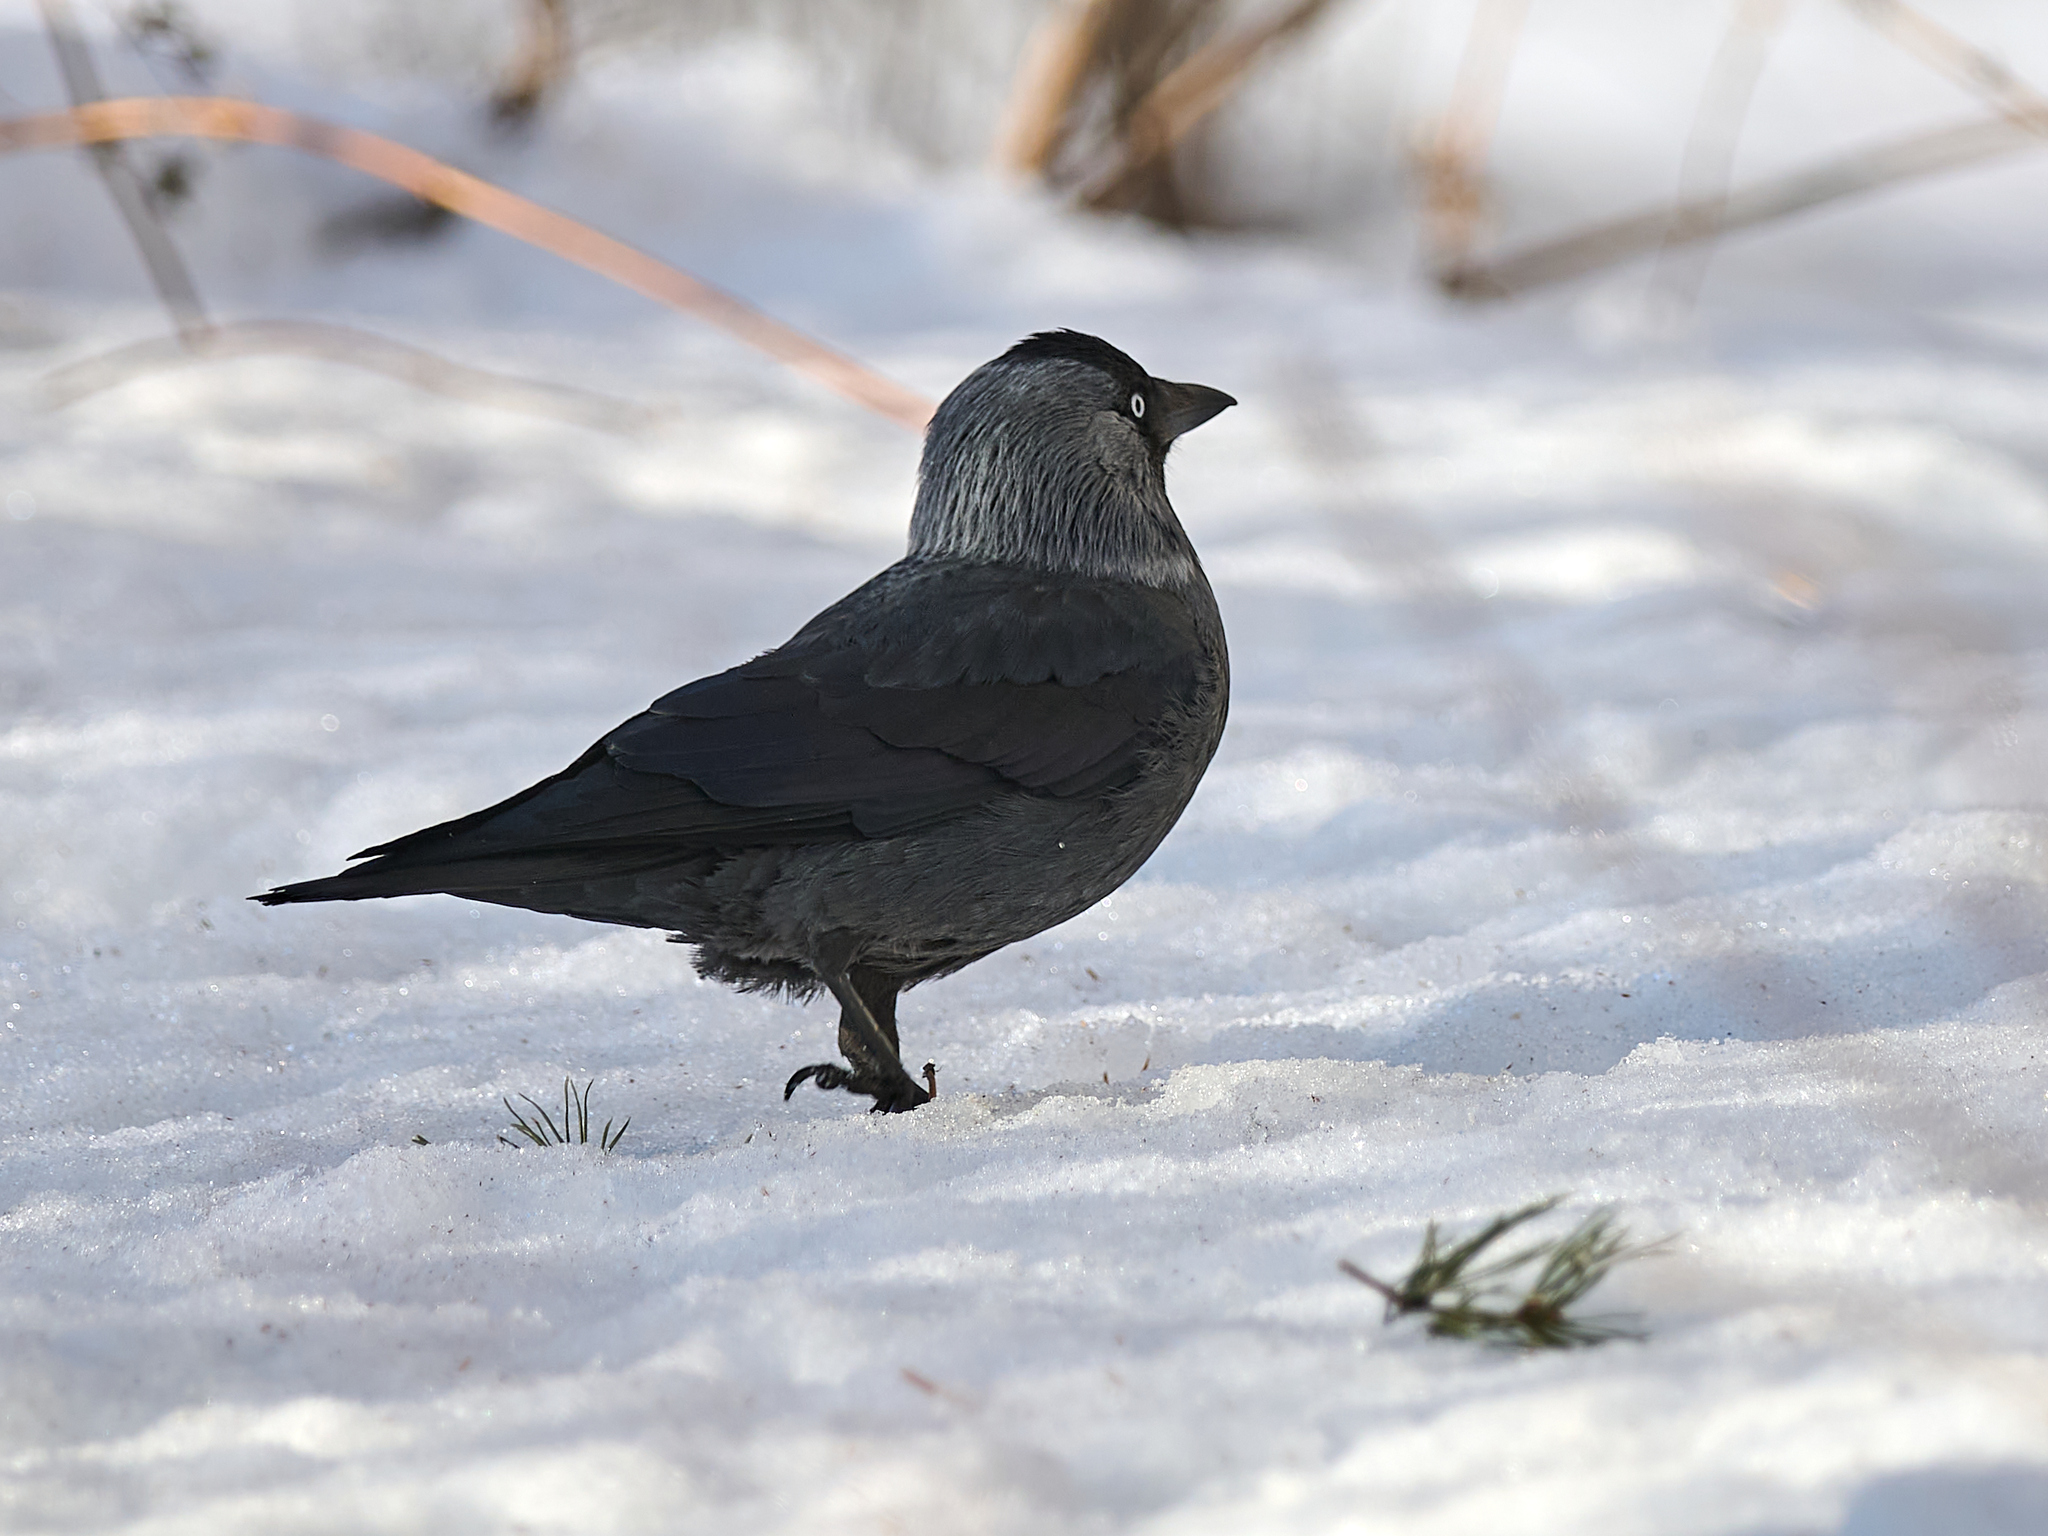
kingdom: Animalia
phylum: Chordata
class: Aves
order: Passeriformes
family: Corvidae
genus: Coloeus
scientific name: Coloeus monedula
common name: Western jackdaw
